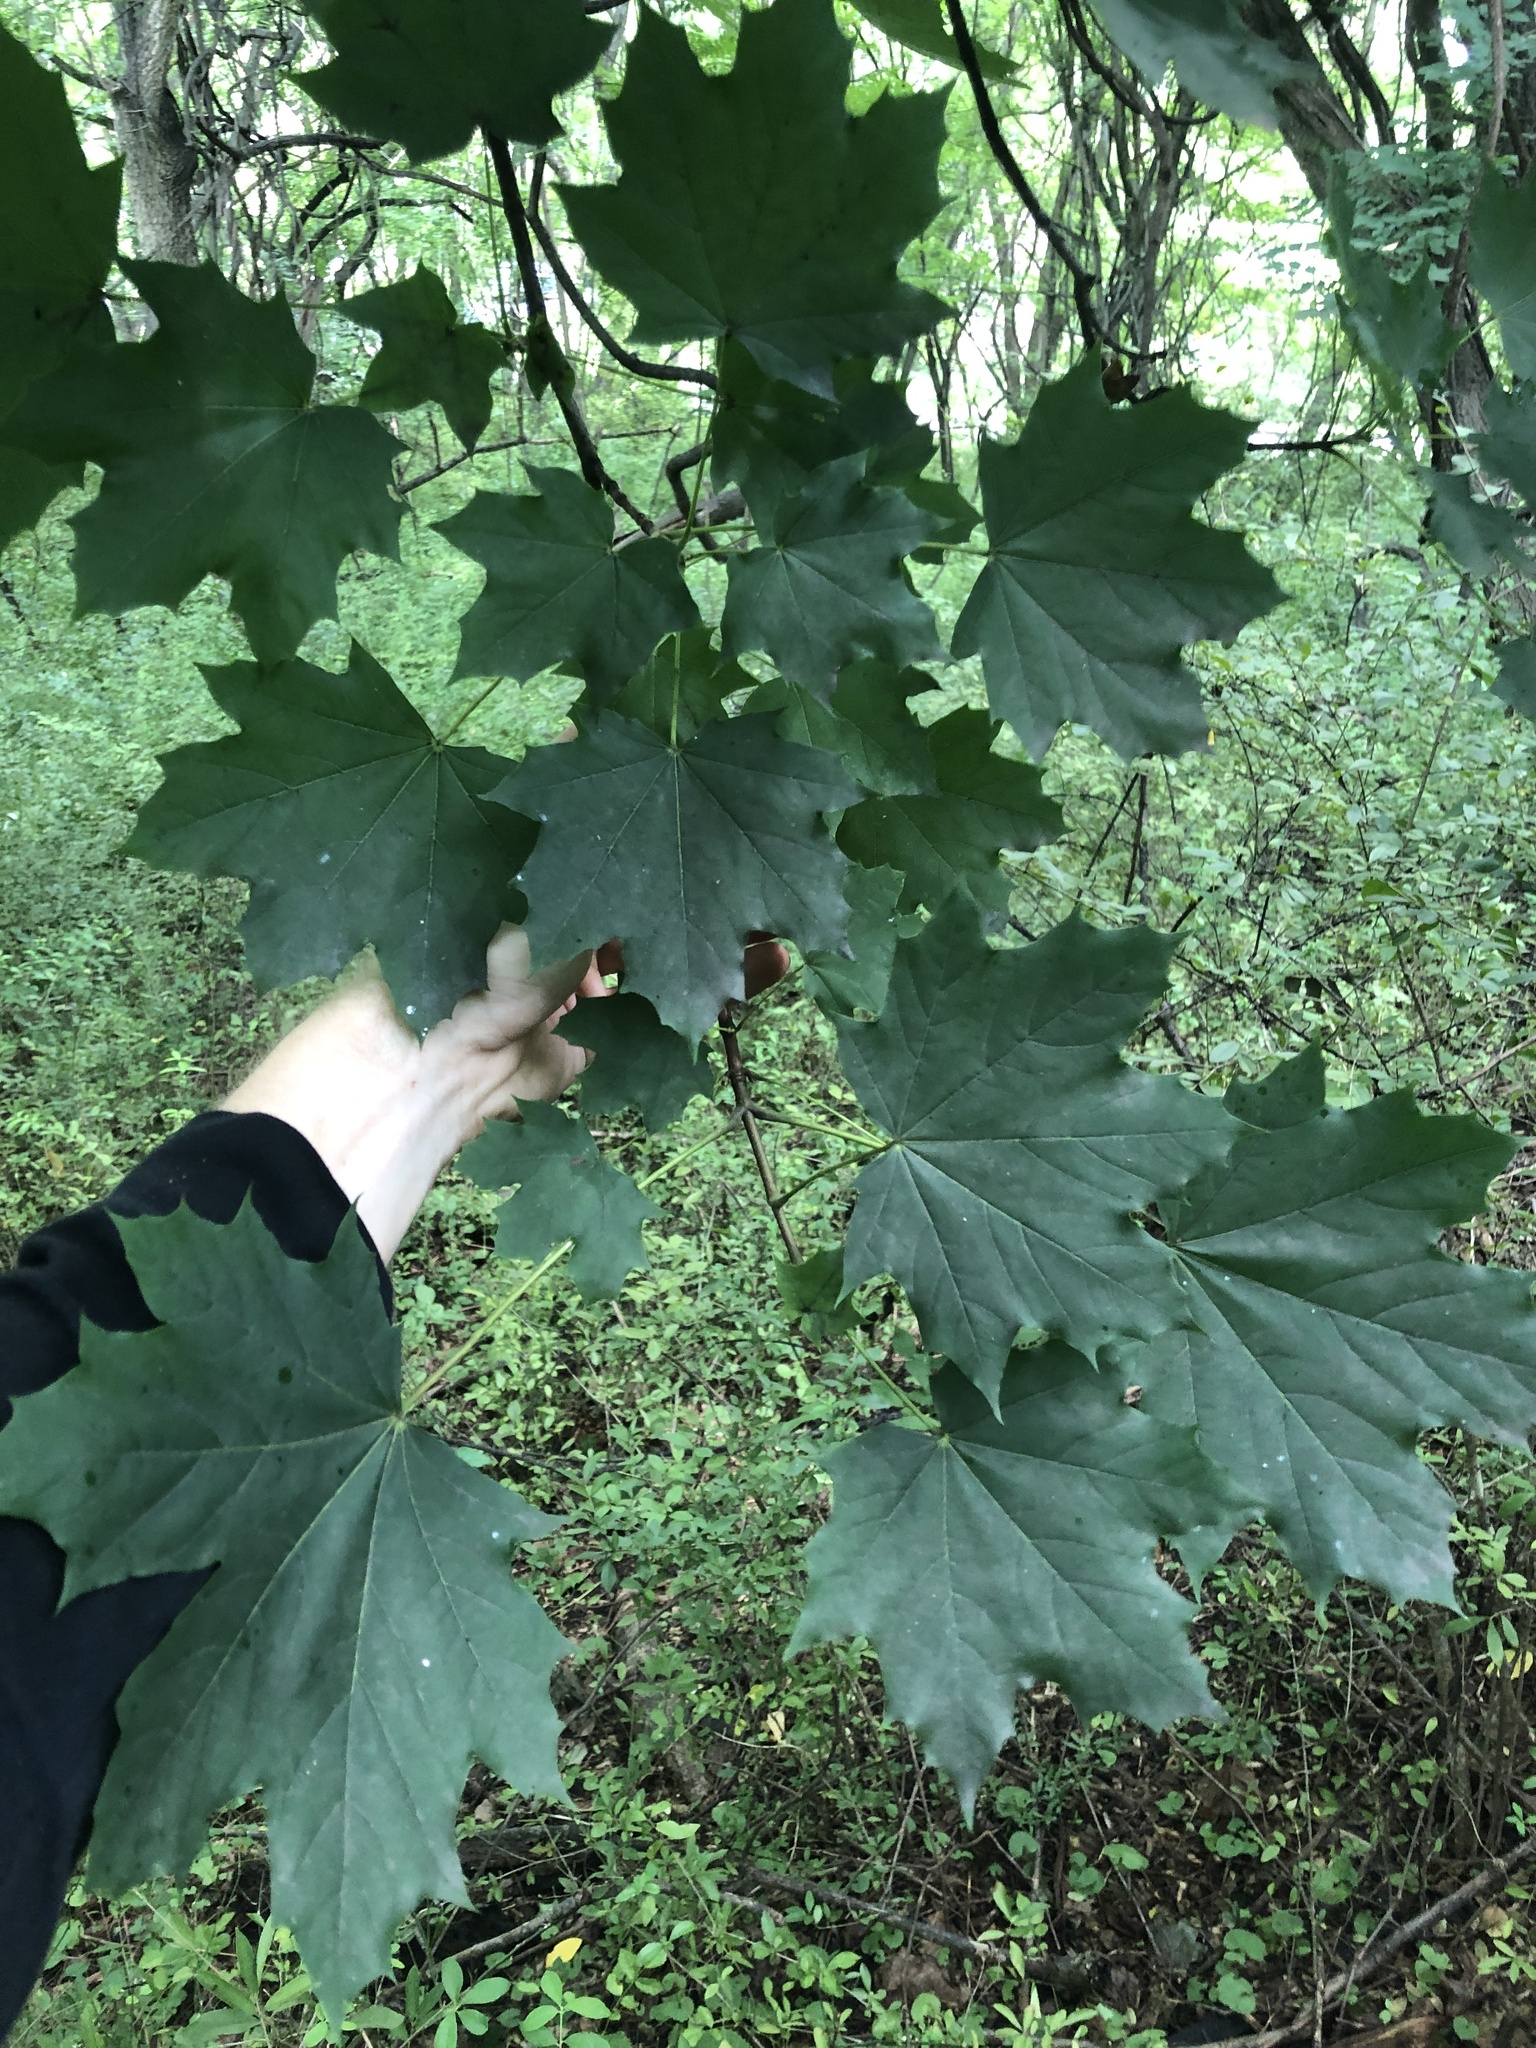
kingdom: Plantae
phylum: Tracheophyta
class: Magnoliopsida
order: Sapindales
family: Sapindaceae
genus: Acer
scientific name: Acer platanoides
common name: Norway maple
